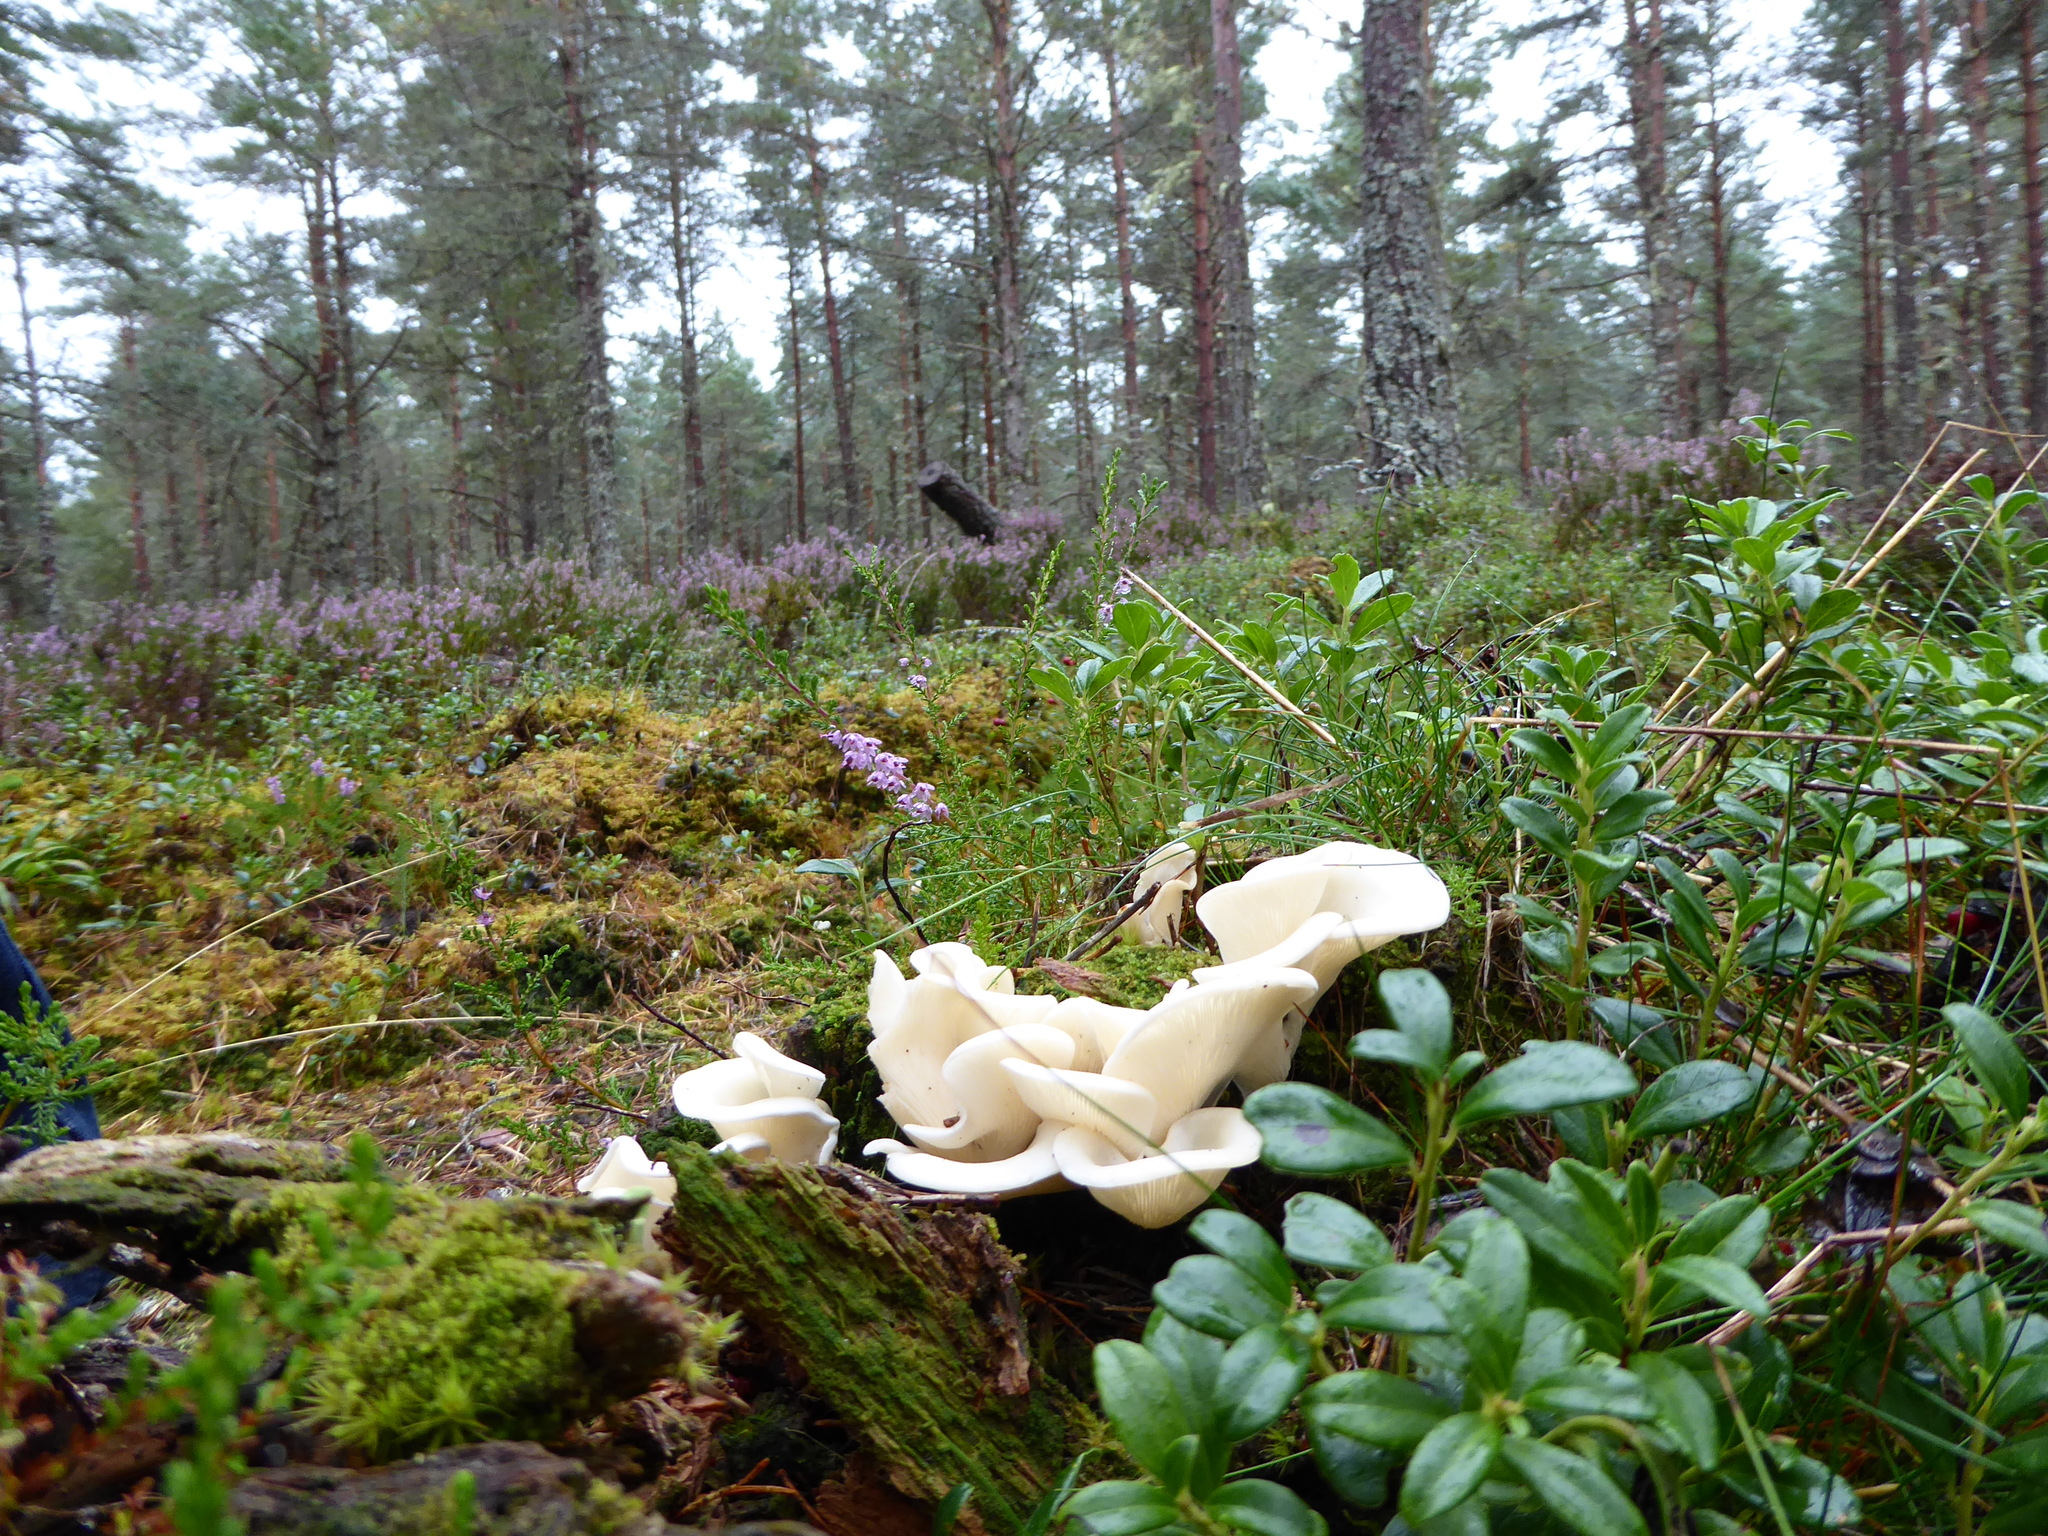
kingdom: Fungi
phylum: Basidiomycota
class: Agaricomycetes
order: Agaricales
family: Marasmiaceae
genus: Pleurocybella
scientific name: Pleurocybella porrigens
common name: Angel's wings
